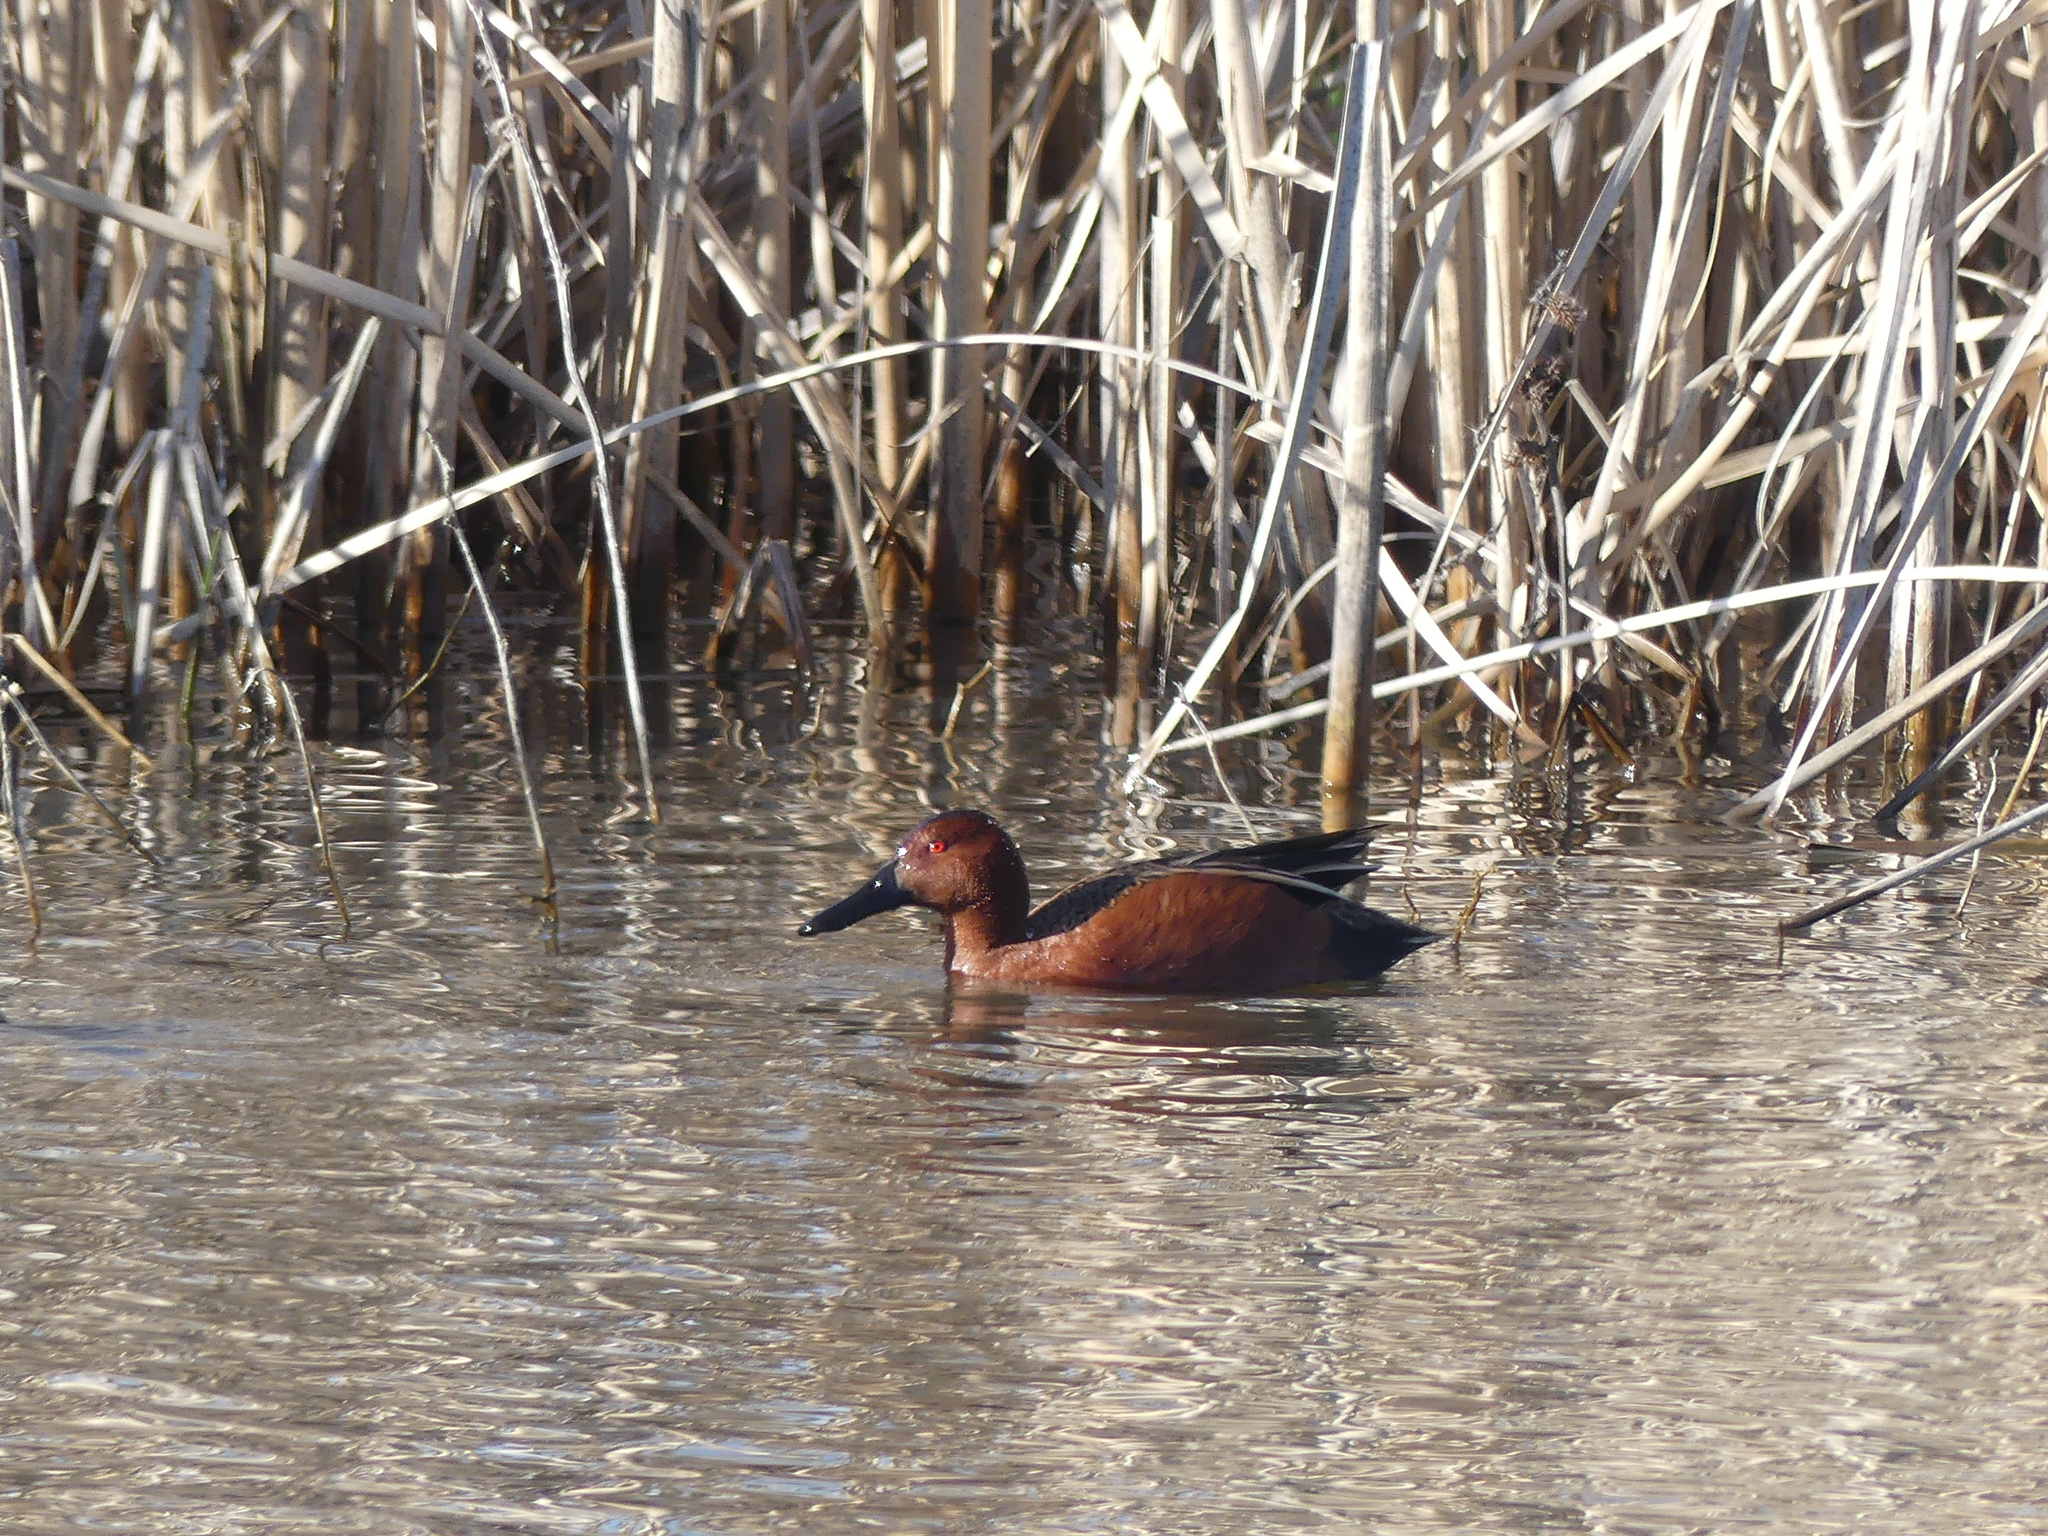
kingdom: Animalia
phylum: Chordata
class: Aves
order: Anseriformes
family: Anatidae
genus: Spatula
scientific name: Spatula cyanoptera
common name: Cinnamon teal
